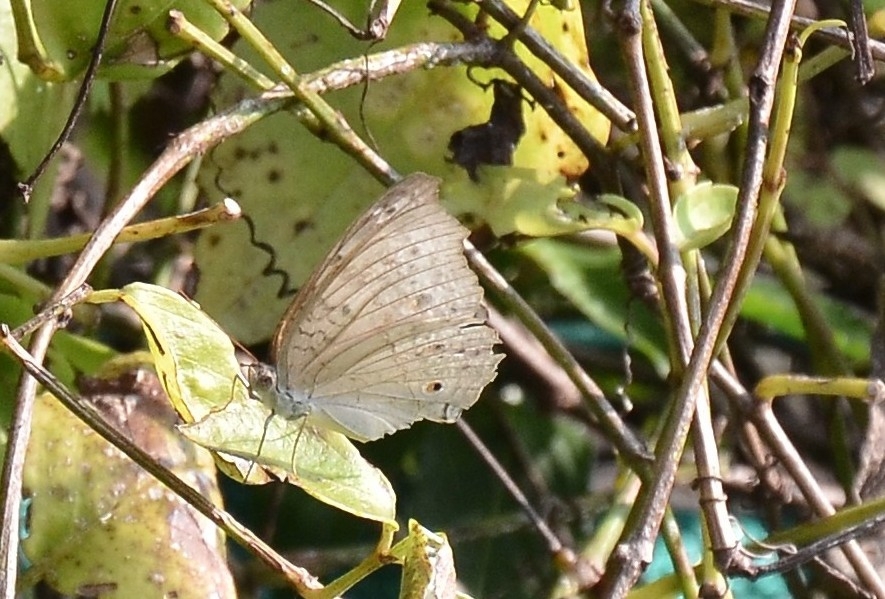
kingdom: Animalia
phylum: Arthropoda
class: Insecta
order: Lepidoptera
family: Nymphalidae
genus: Junonia
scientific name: Junonia atlites
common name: Grey pansy
